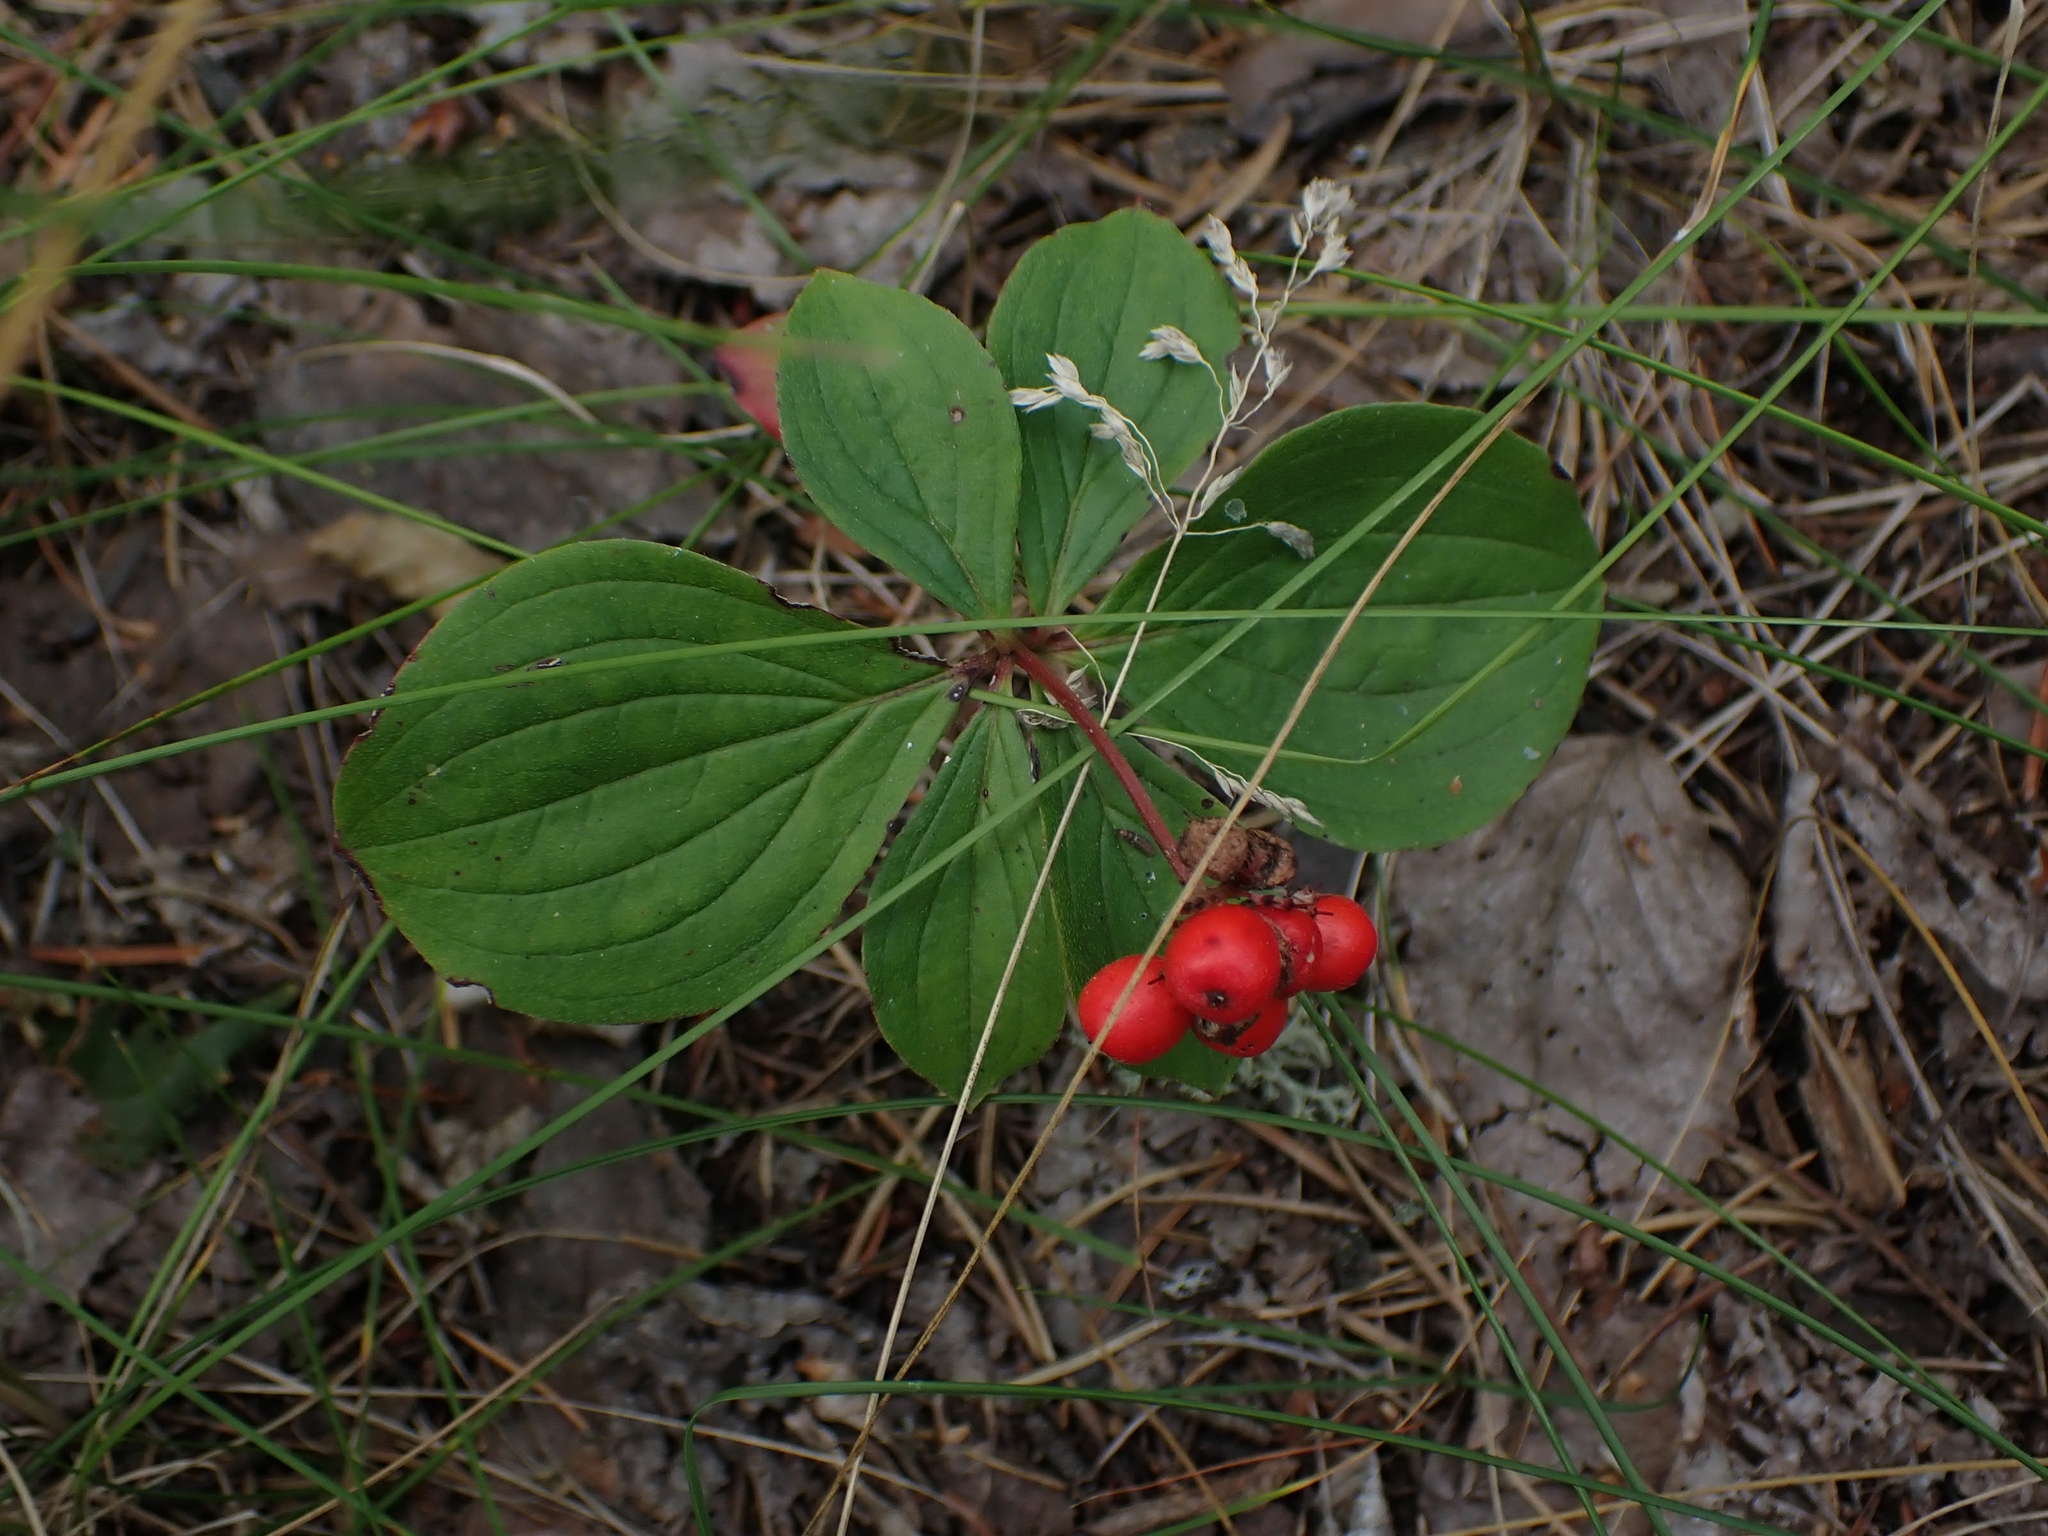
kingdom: Plantae
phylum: Tracheophyta
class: Magnoliopsida
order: Cornales
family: Cornaceae
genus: Cornus
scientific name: Cornus canadensis
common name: Creeping dogwood
